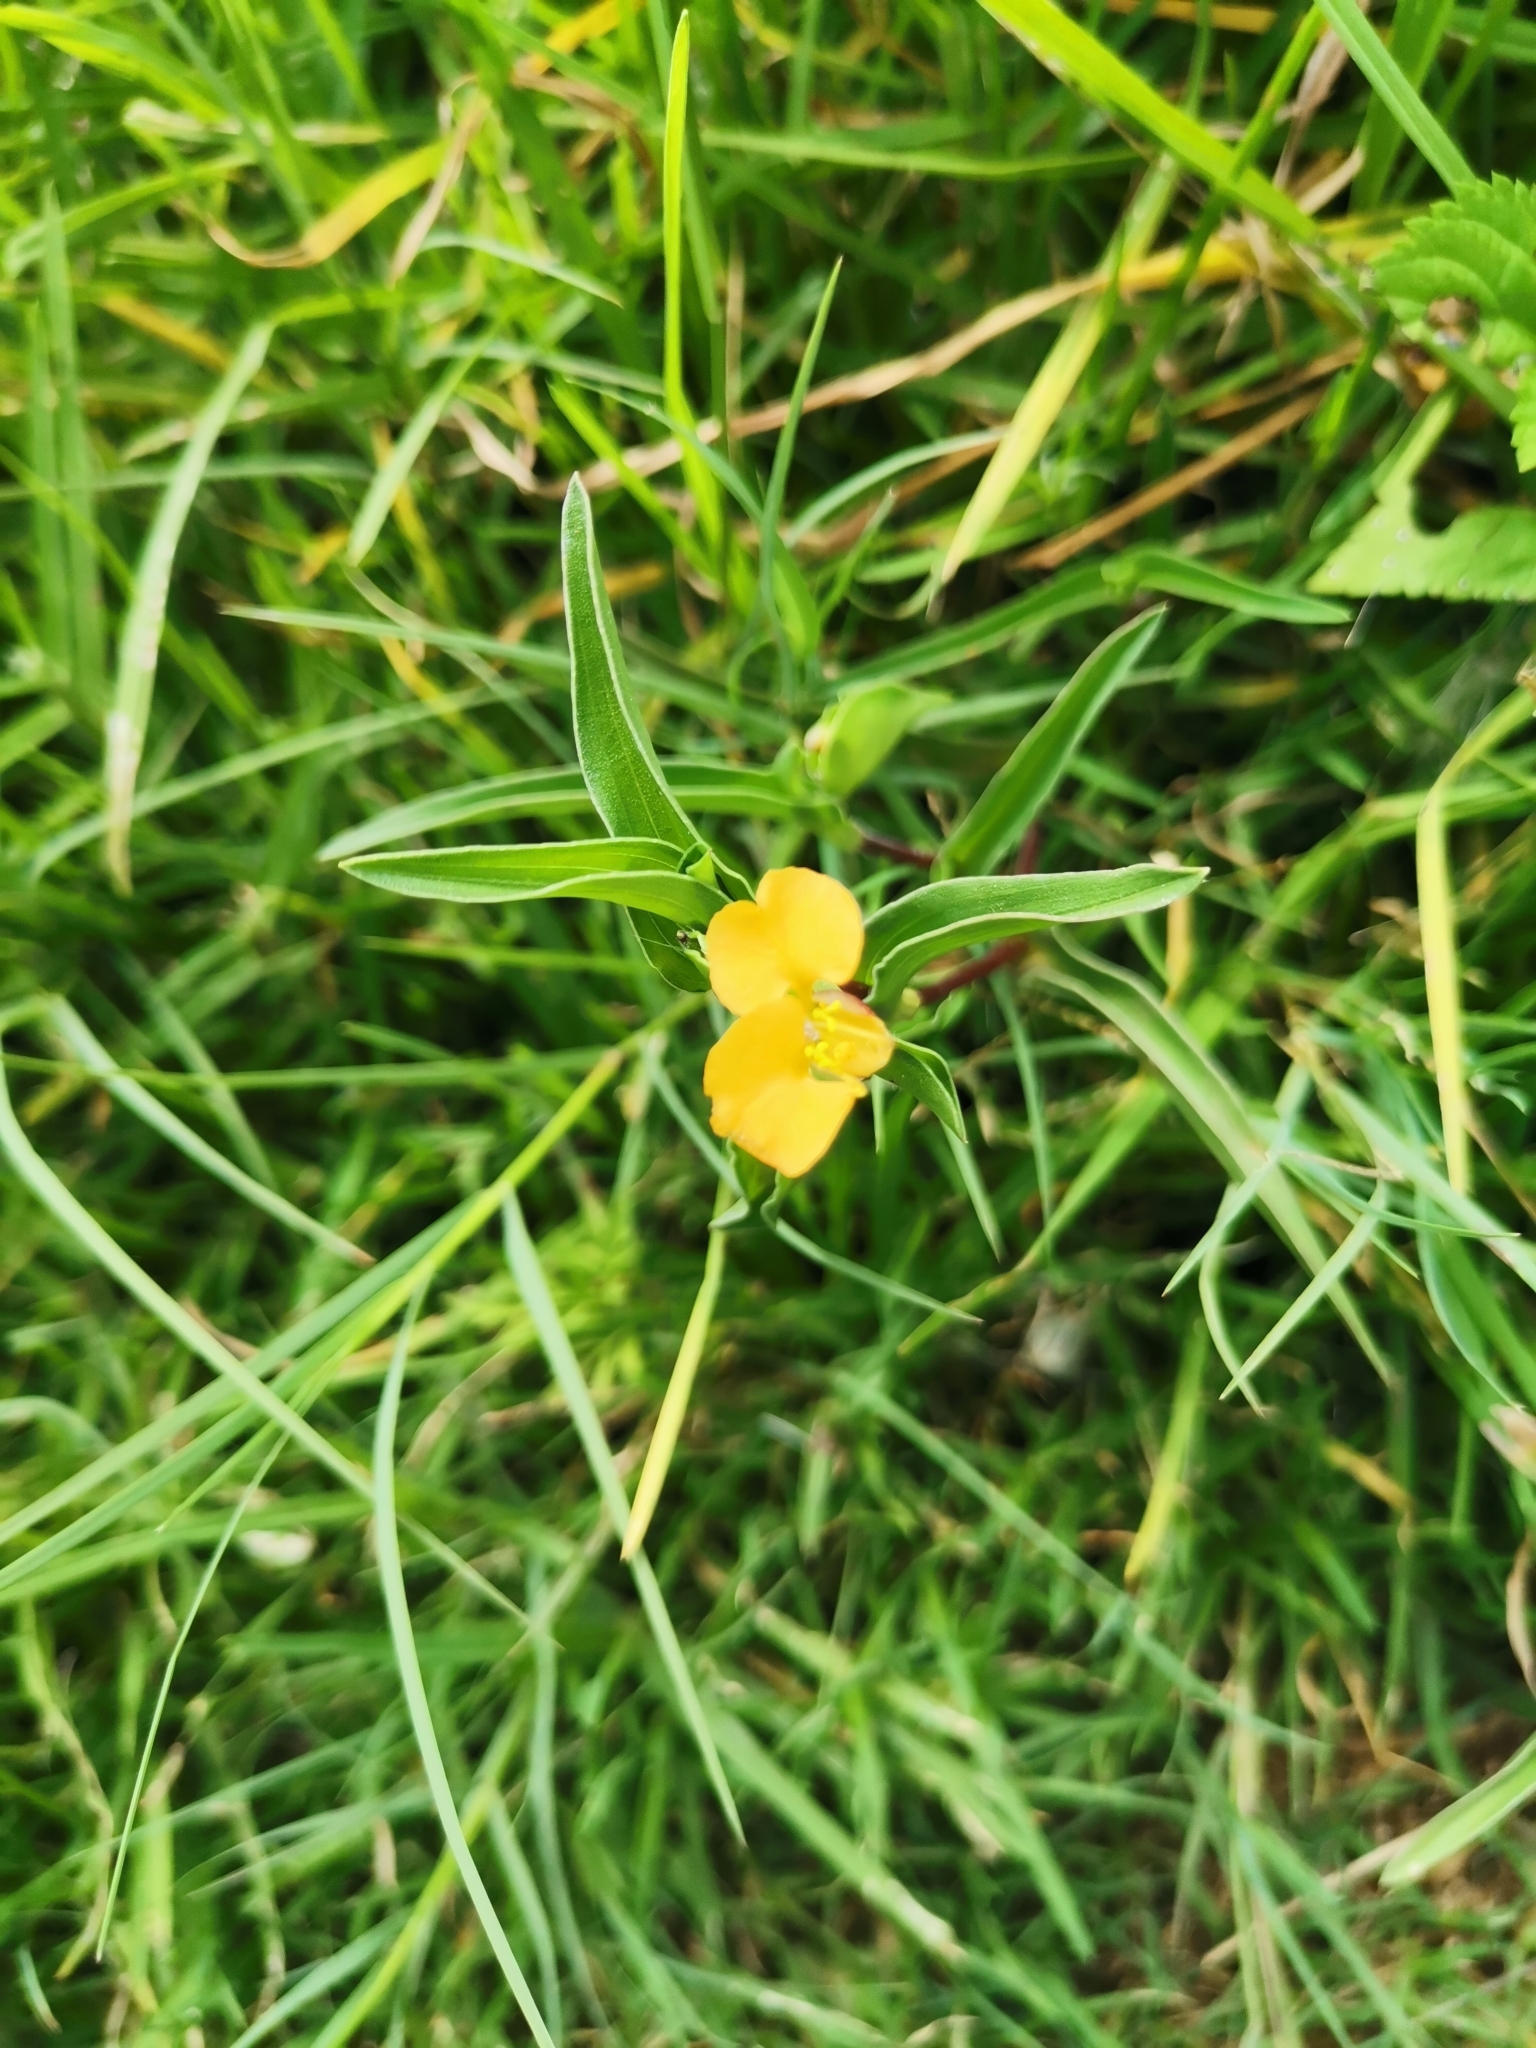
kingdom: Plantae
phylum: Tracheophyta
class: Liliopsida
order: Commelinales
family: Commelinaceae
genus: Commelina
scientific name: Commelina africana
